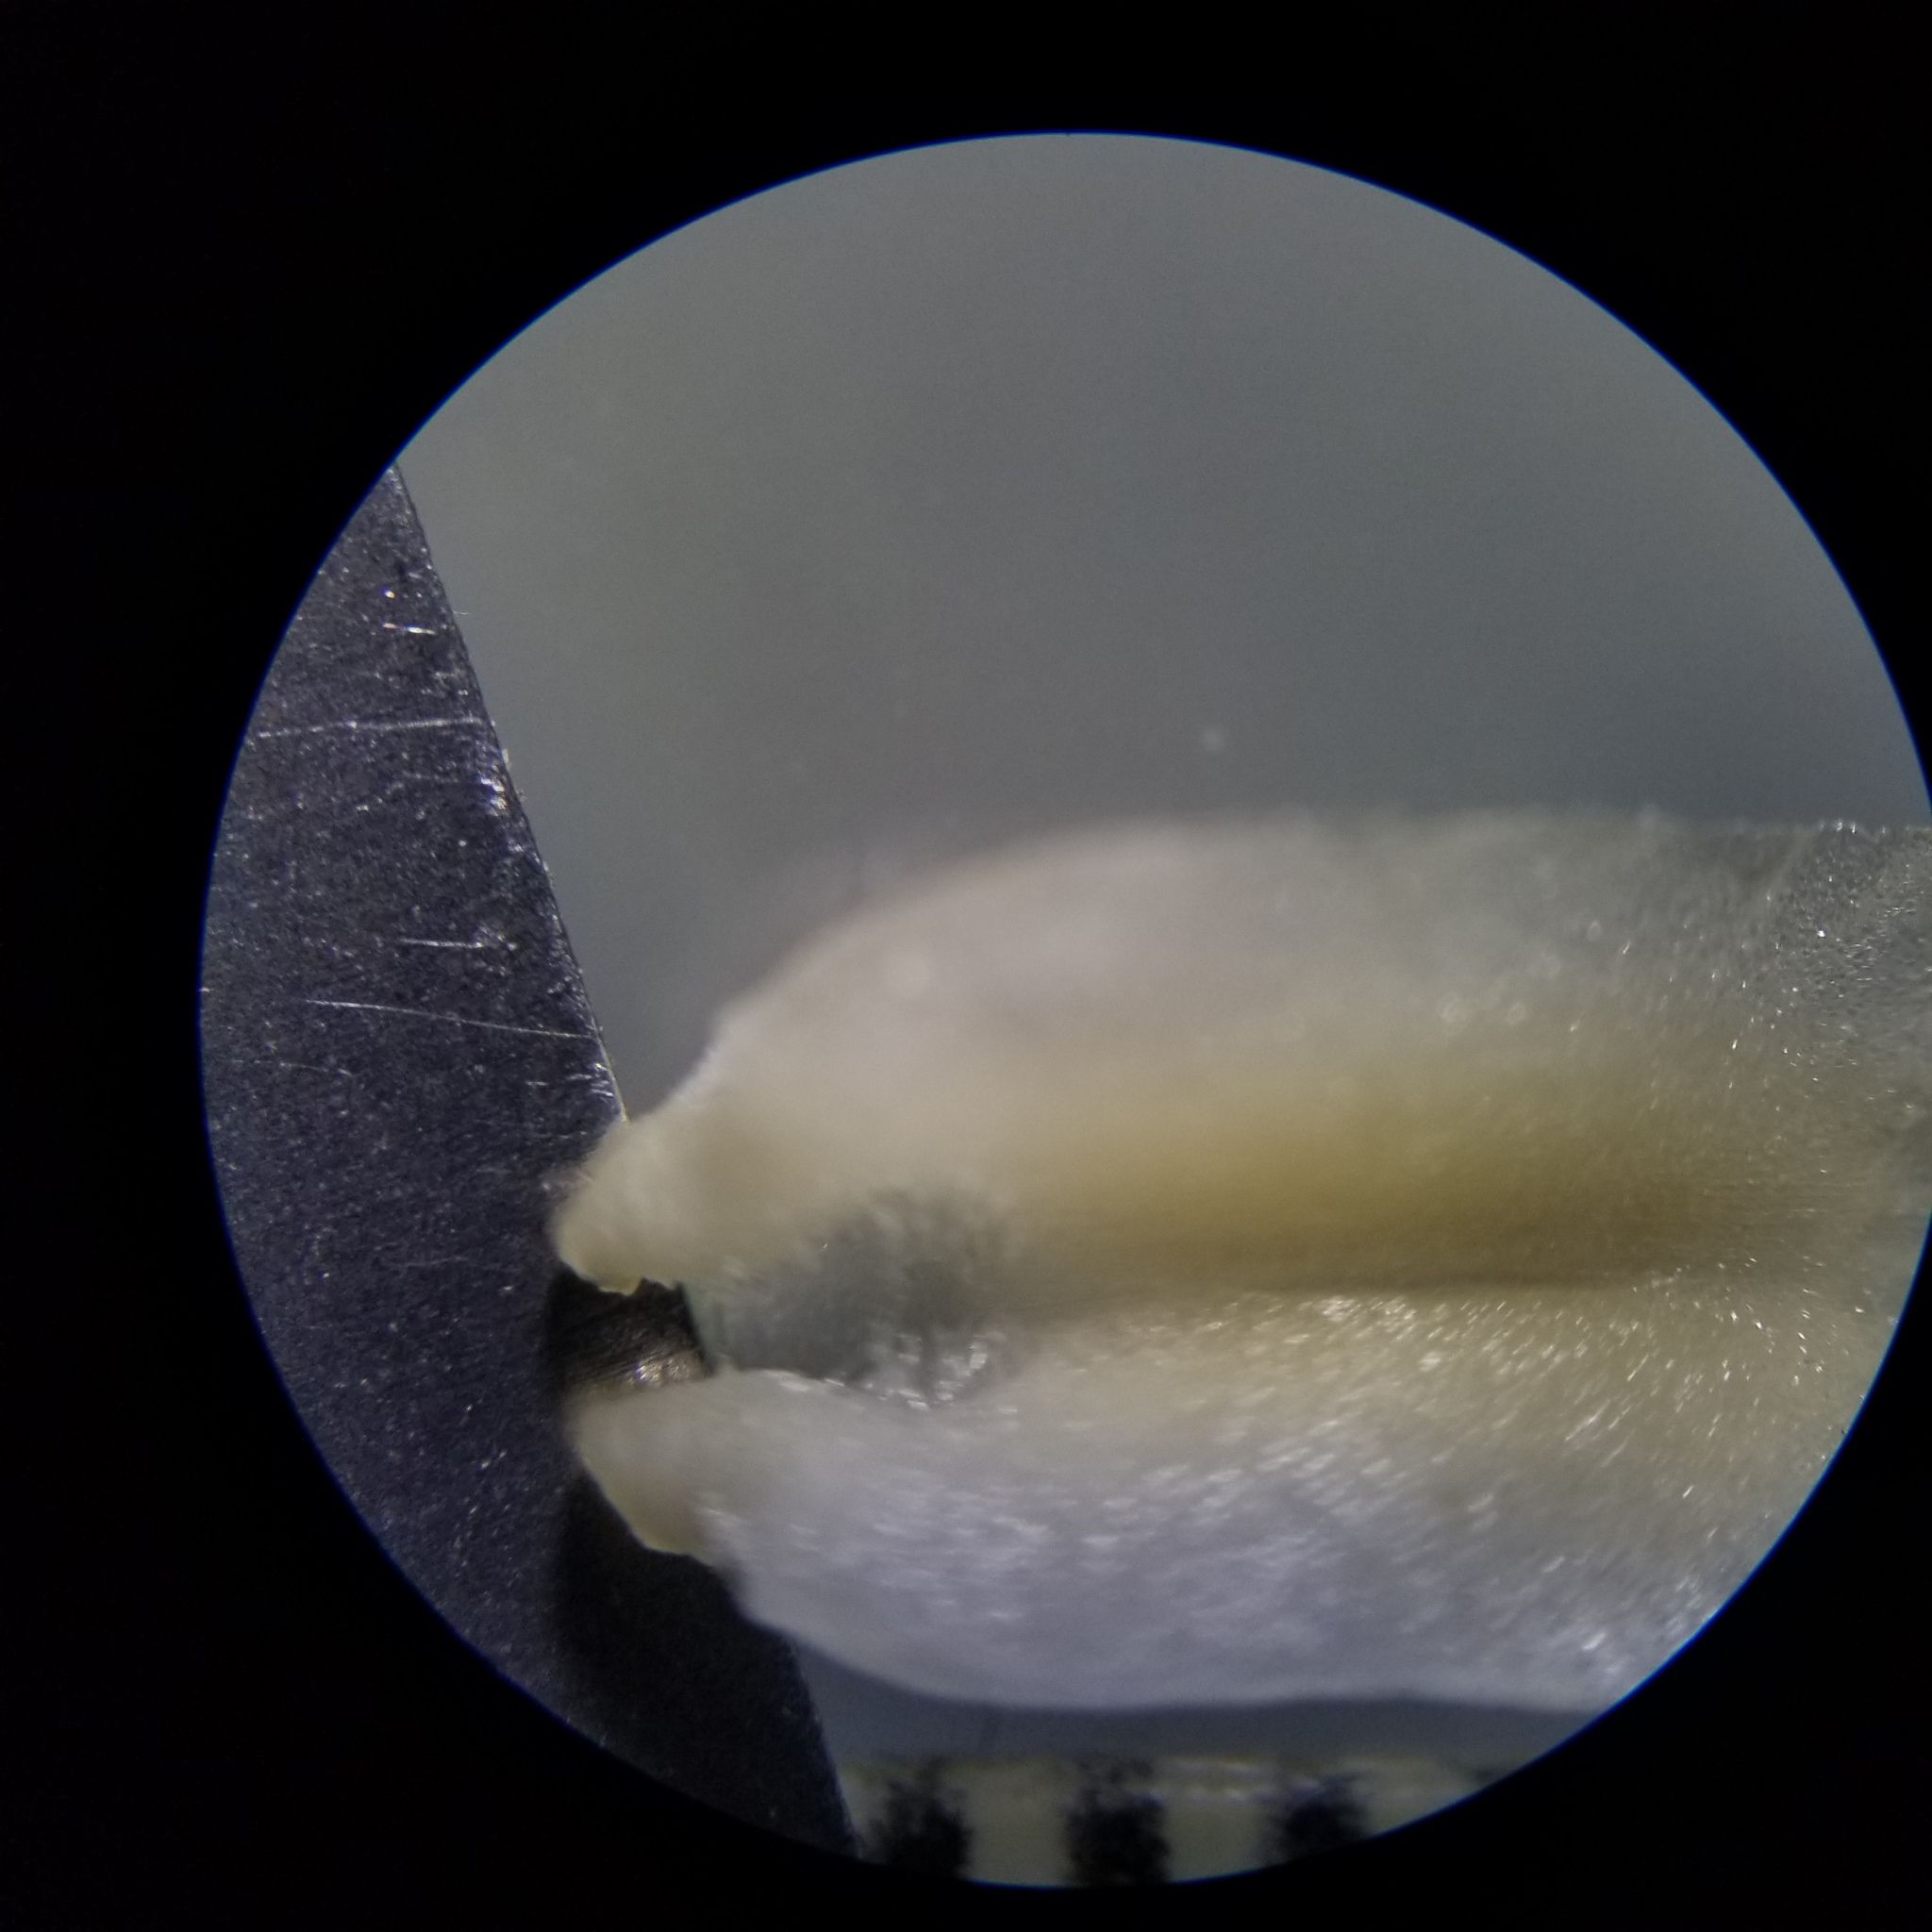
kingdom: Plantae
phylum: Tracheophyta
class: Liliopsida
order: Asparagales
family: Orchidaceae
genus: Spiranthes
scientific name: Spiranthes ochroleuca
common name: Yellow ladies'-tresses
